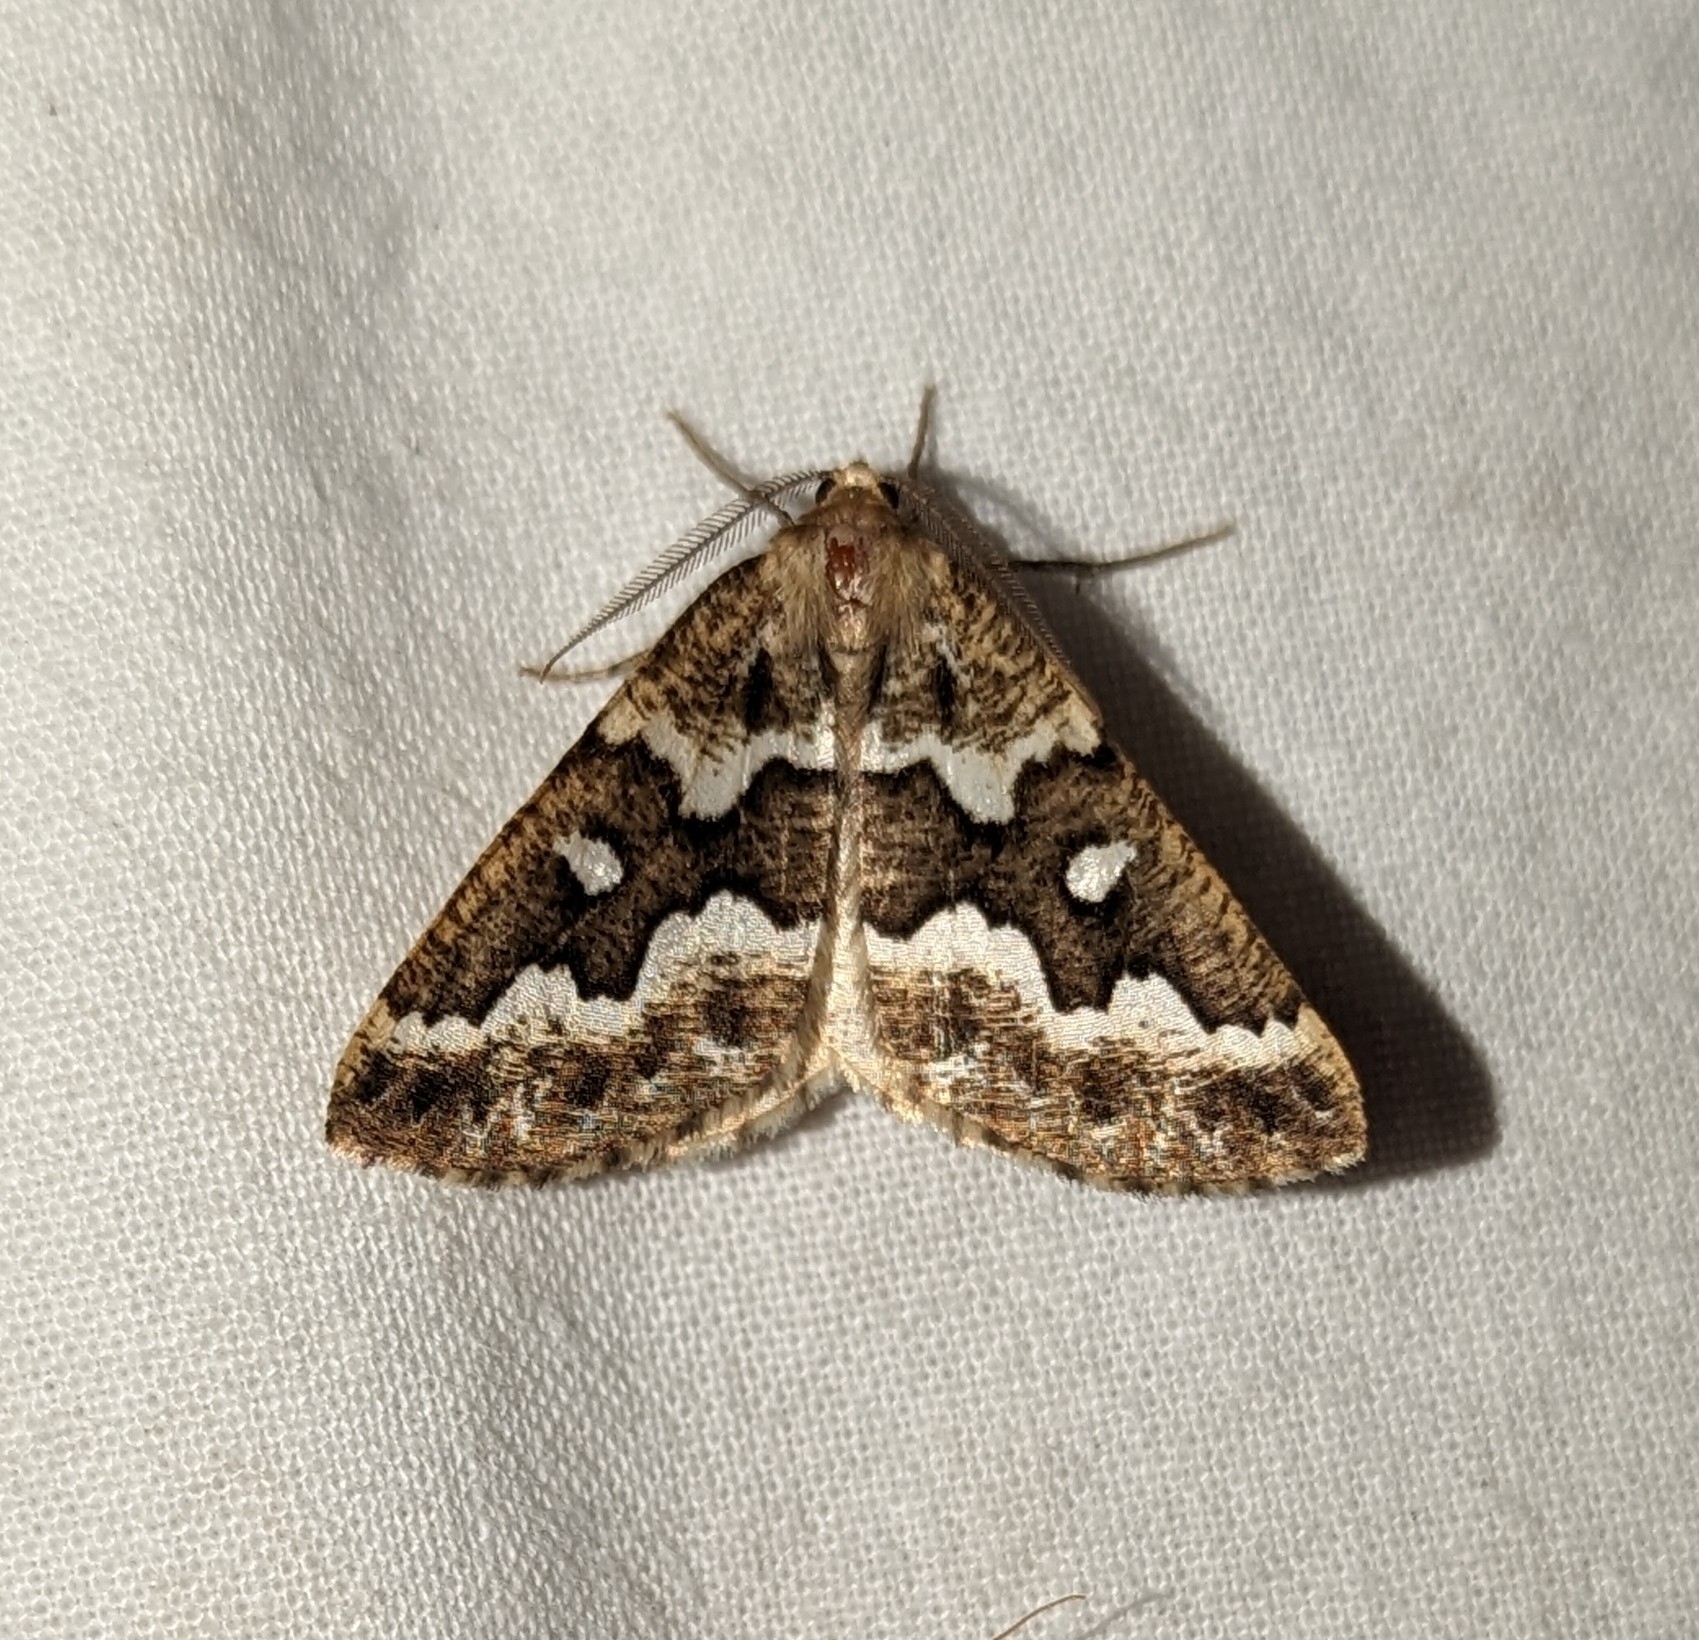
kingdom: Animalia
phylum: Arthropoda
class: Insecta
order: Lepidoptera
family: Geometridae
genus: Caripeta
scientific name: Caripeta divisata
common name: Gray spruce looper
